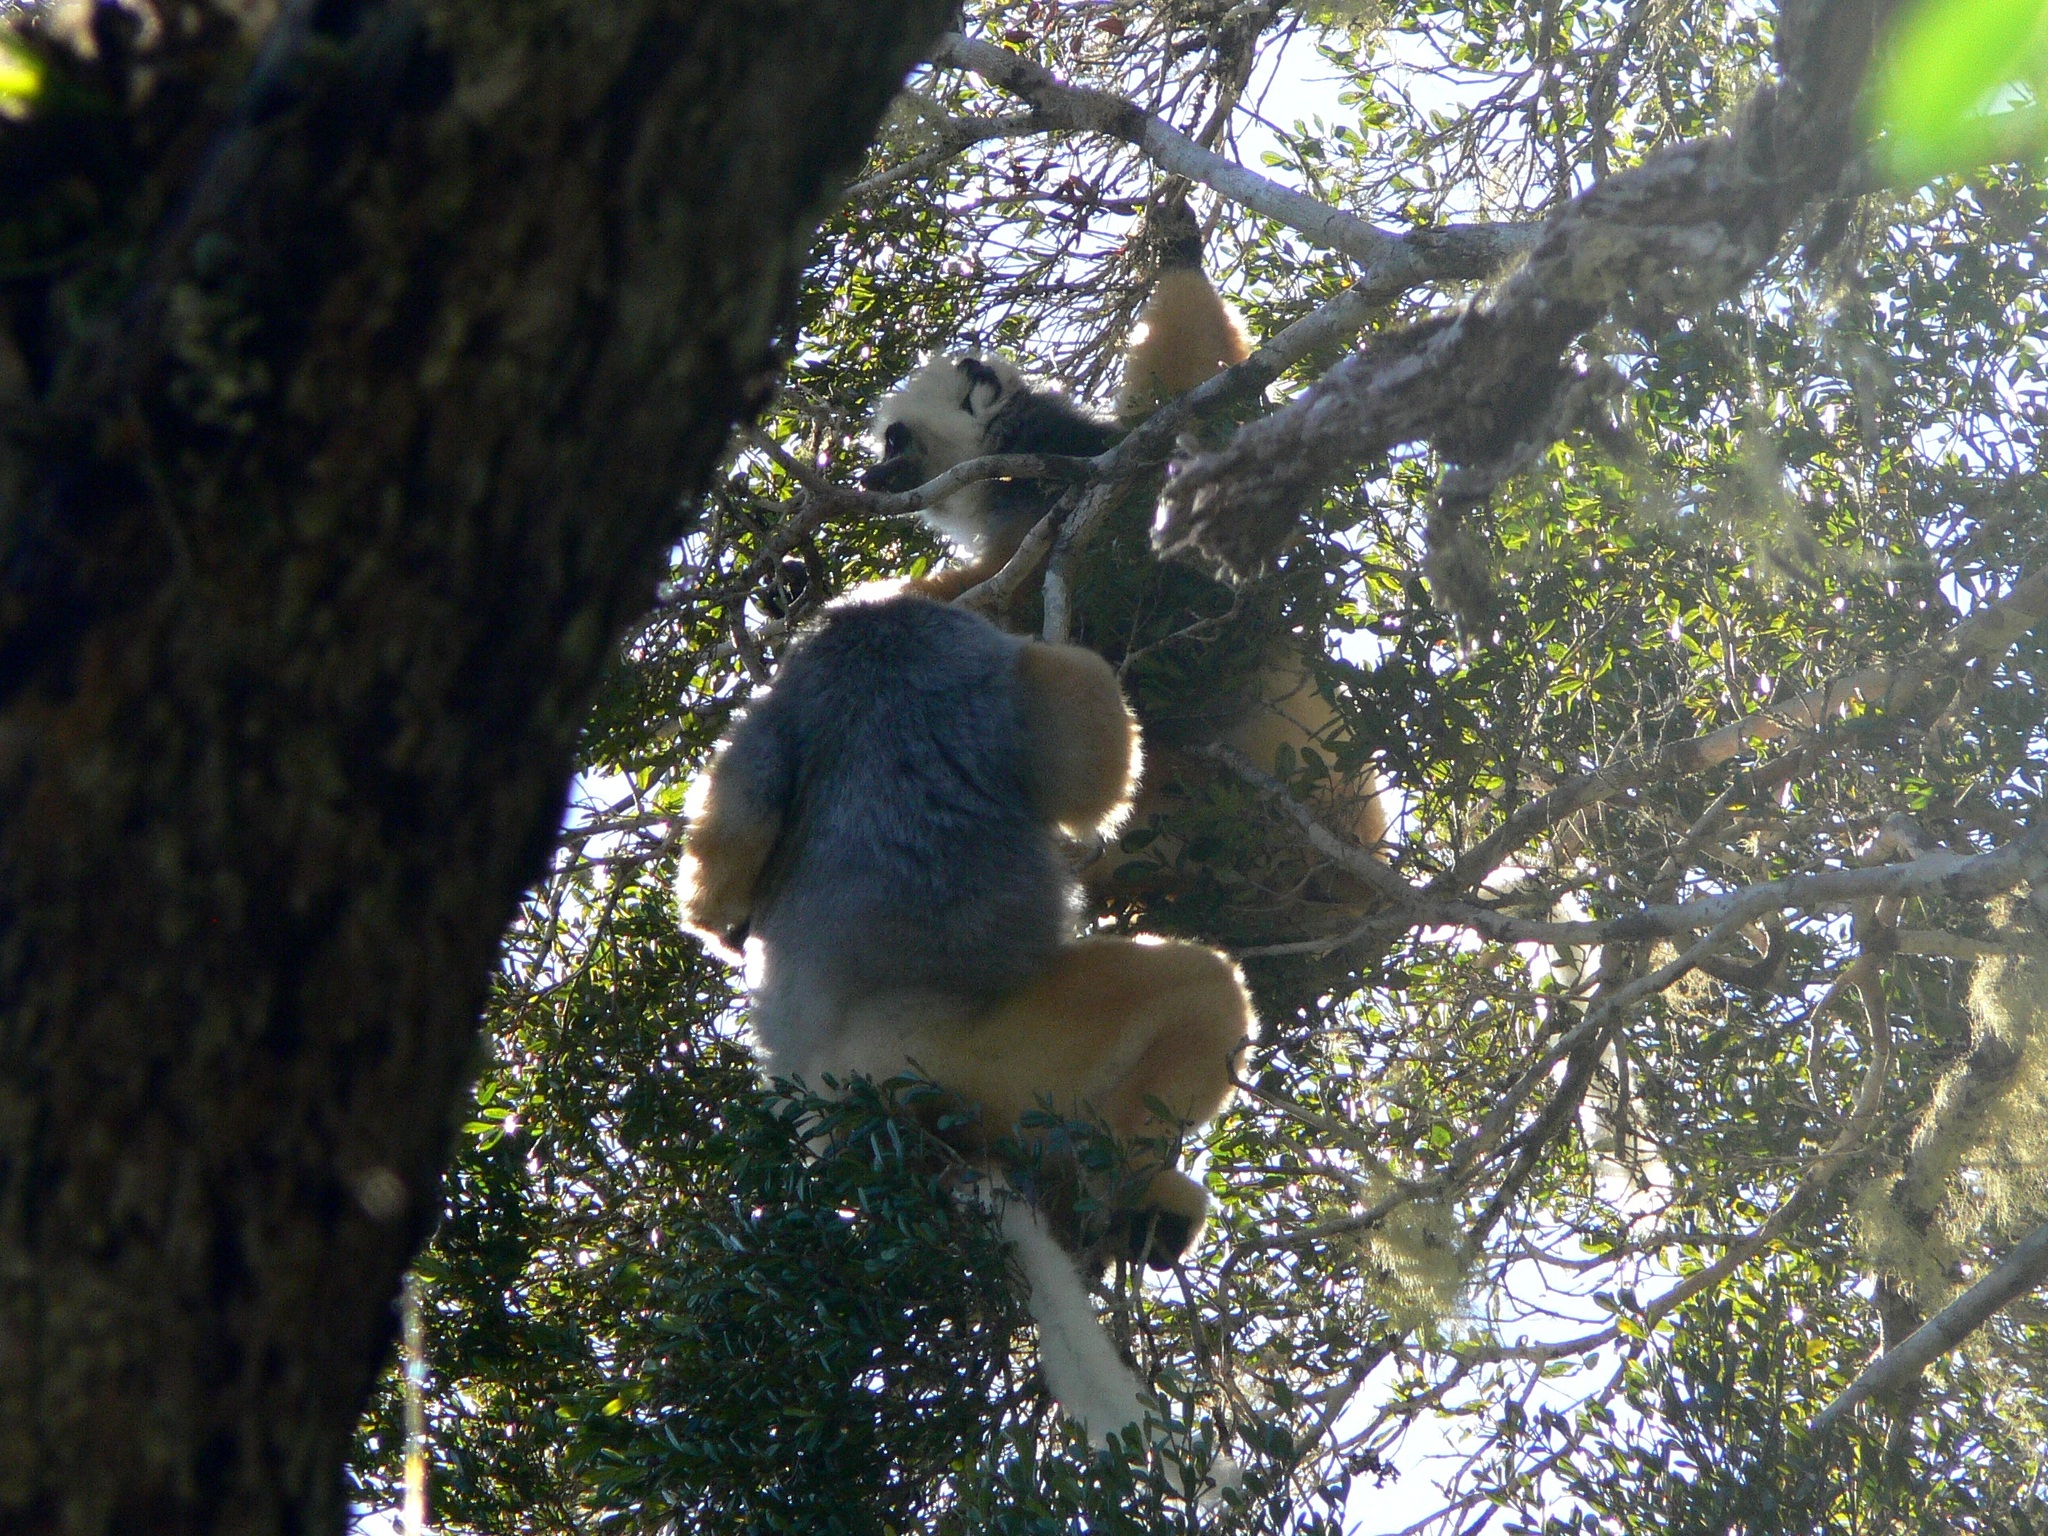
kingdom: Animalia
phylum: Chordata
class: Mammalia
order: Primates
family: Indriidae
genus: Propithecus
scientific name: Propithecus diadema
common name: Diademed sifaka
